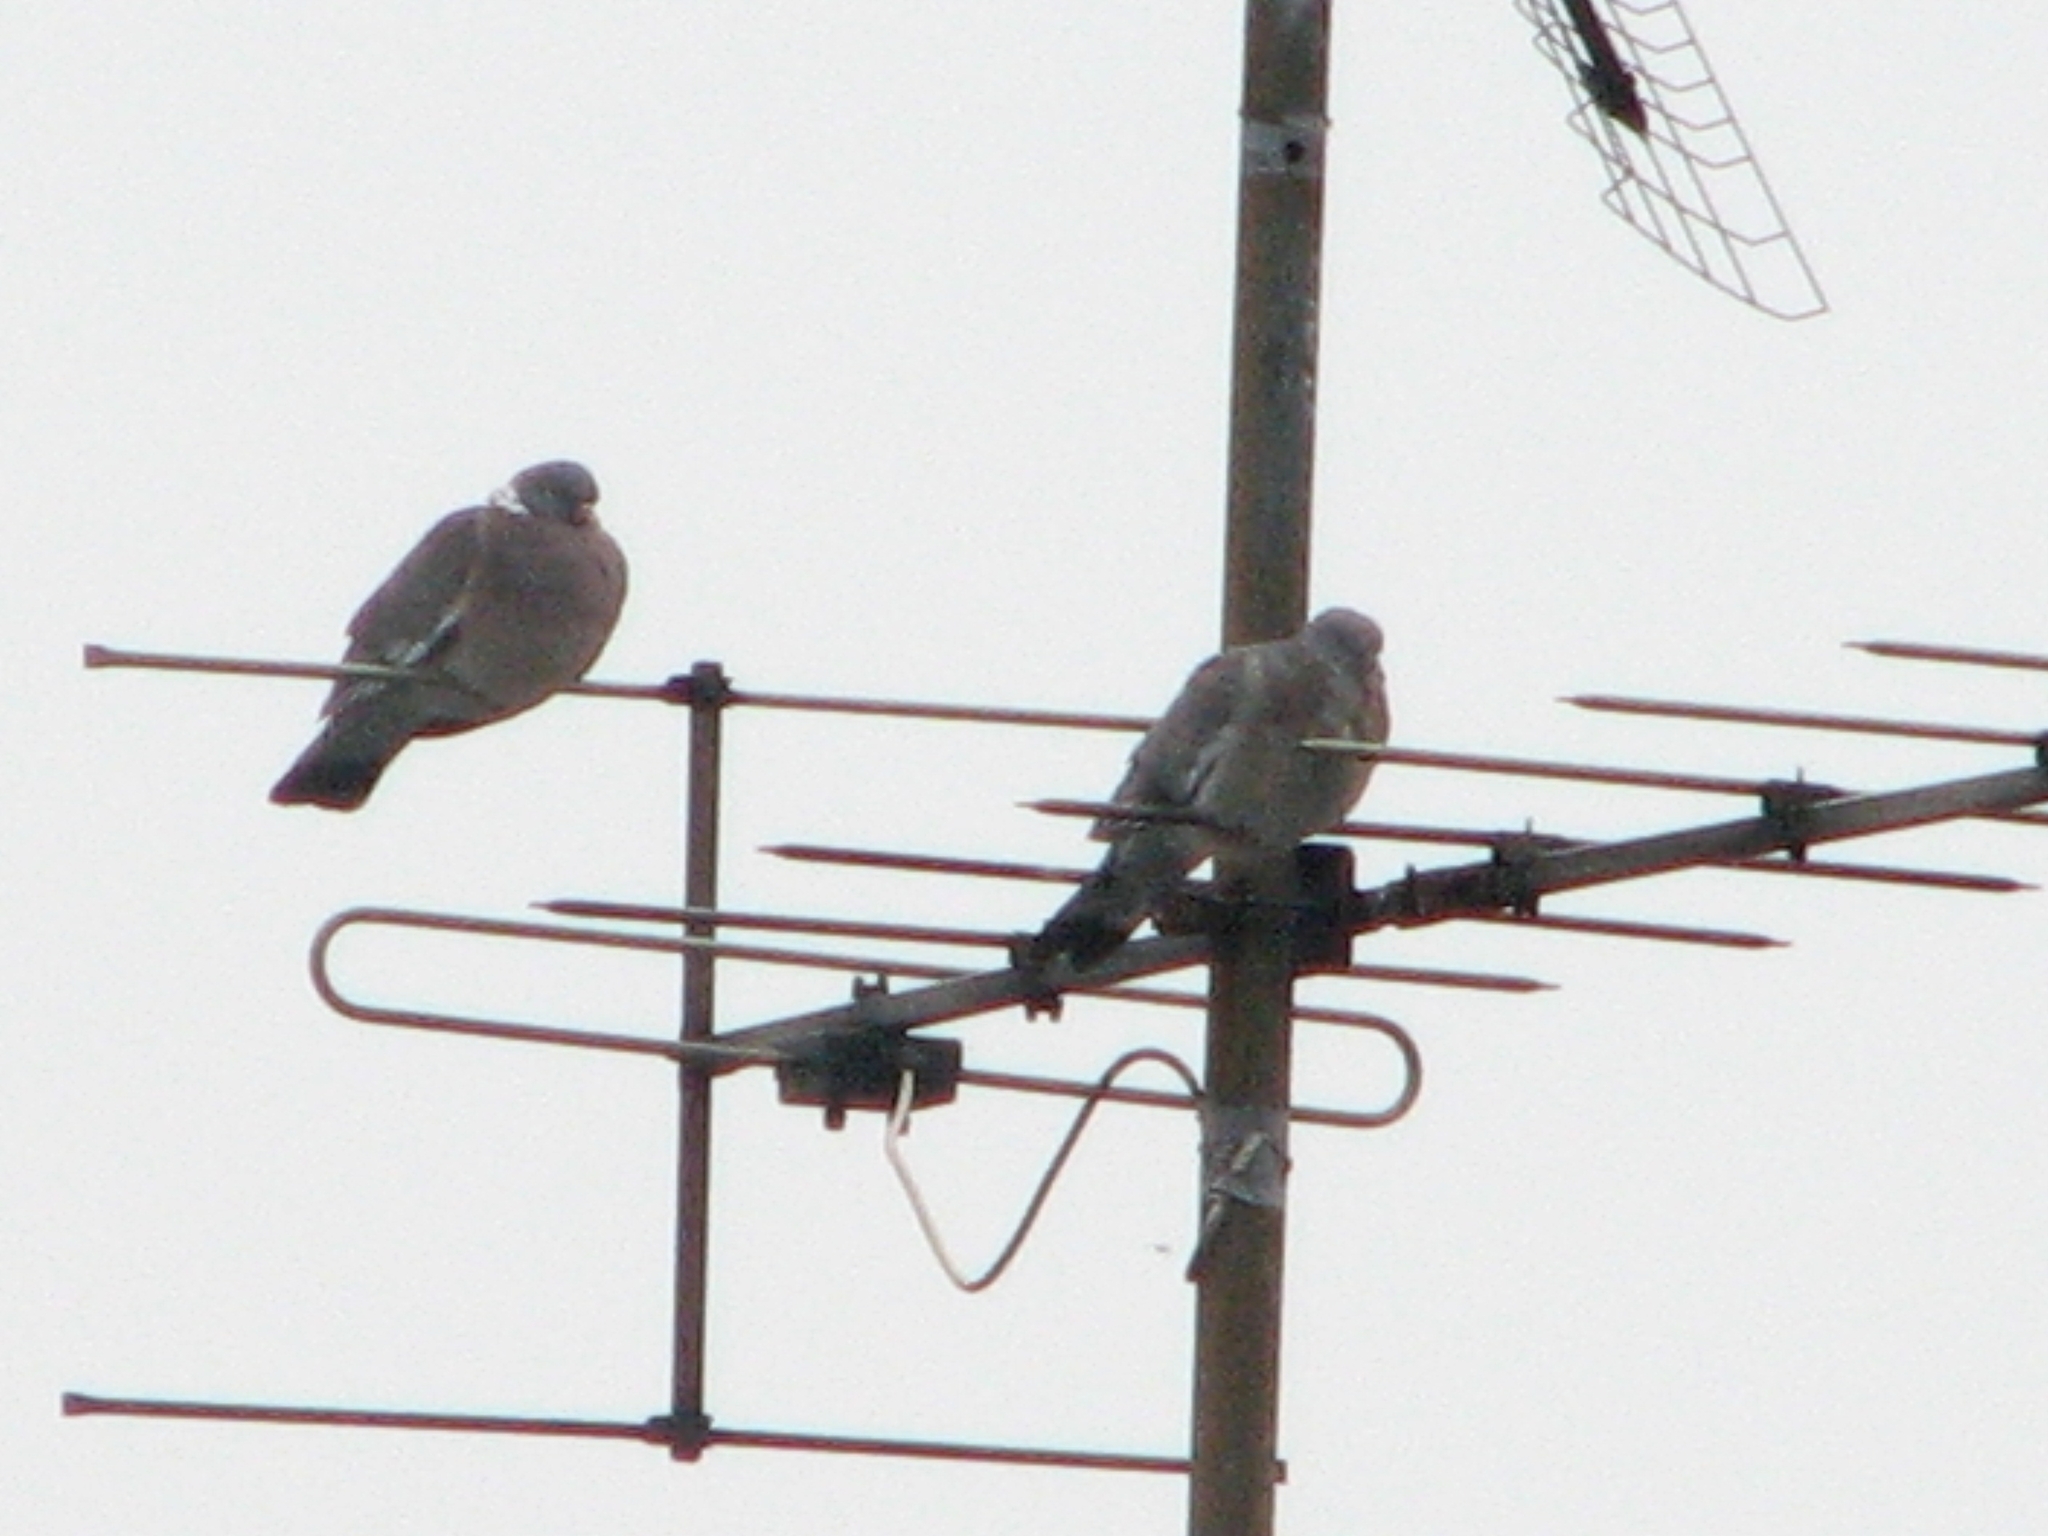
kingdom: Animalia
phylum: Chordata
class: Aves
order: Columbiformes
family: Columbidae
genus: Columba
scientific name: Columba palumbus
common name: Common wood pigeon
